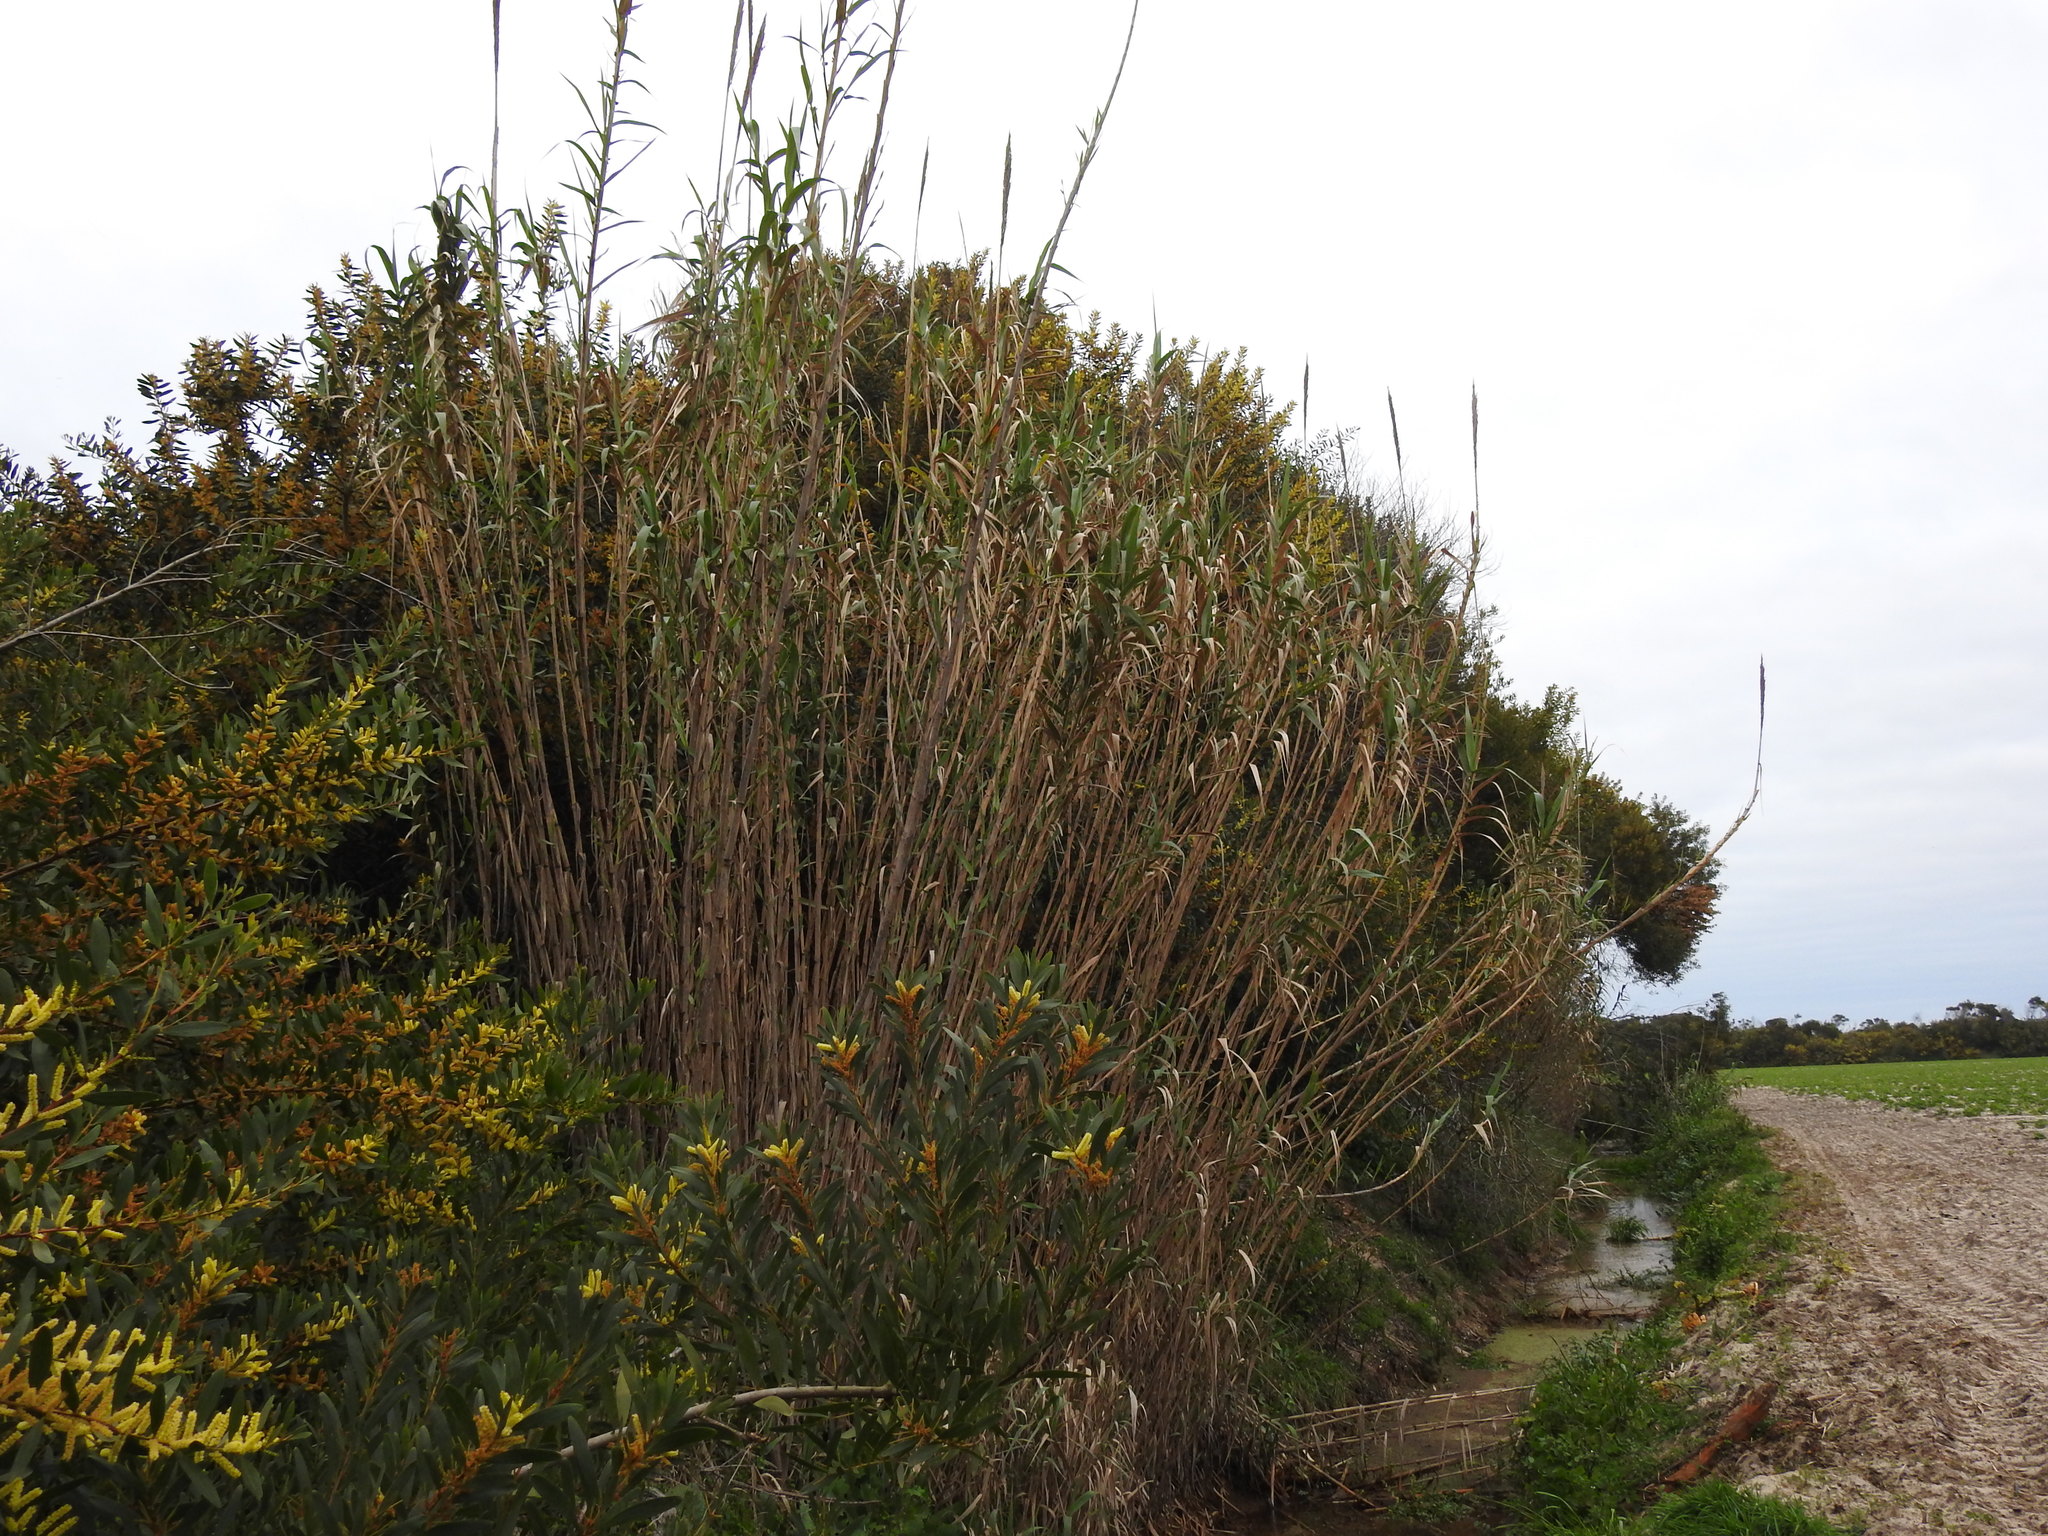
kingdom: Plantae
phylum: Tracheophyta
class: Liliopsida
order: Poales
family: Poaceae
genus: Arundo
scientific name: Arundo donax
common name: Giant reed
